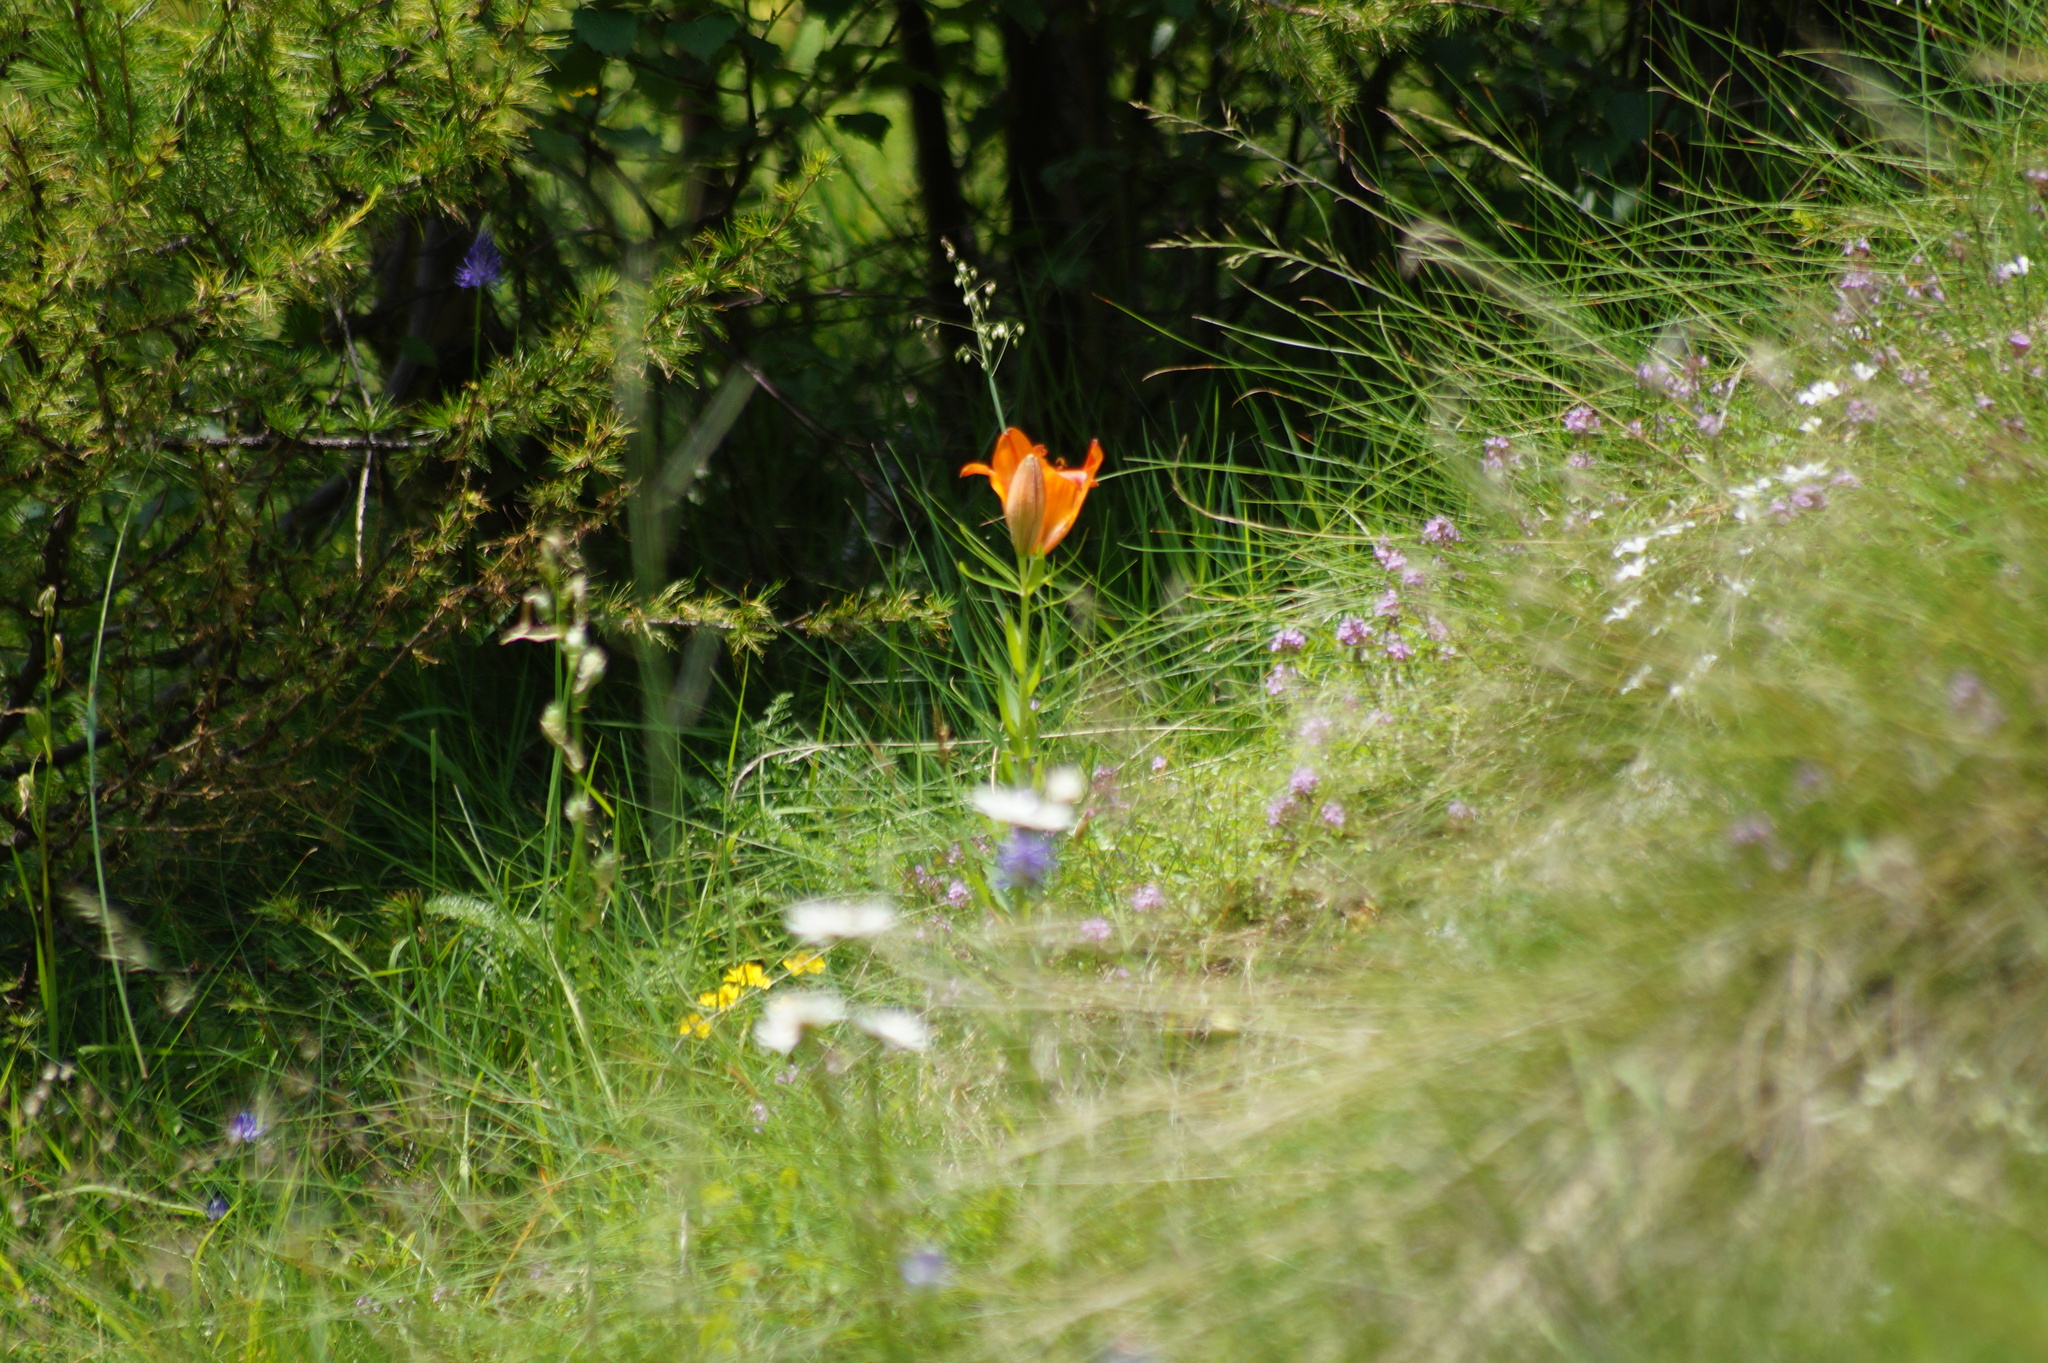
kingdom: Plantae
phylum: Tracheophyta
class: Liliopsida
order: Liliales
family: Liliaceae
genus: Lilium
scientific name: Lilium bulbiferum
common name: Orange lily
